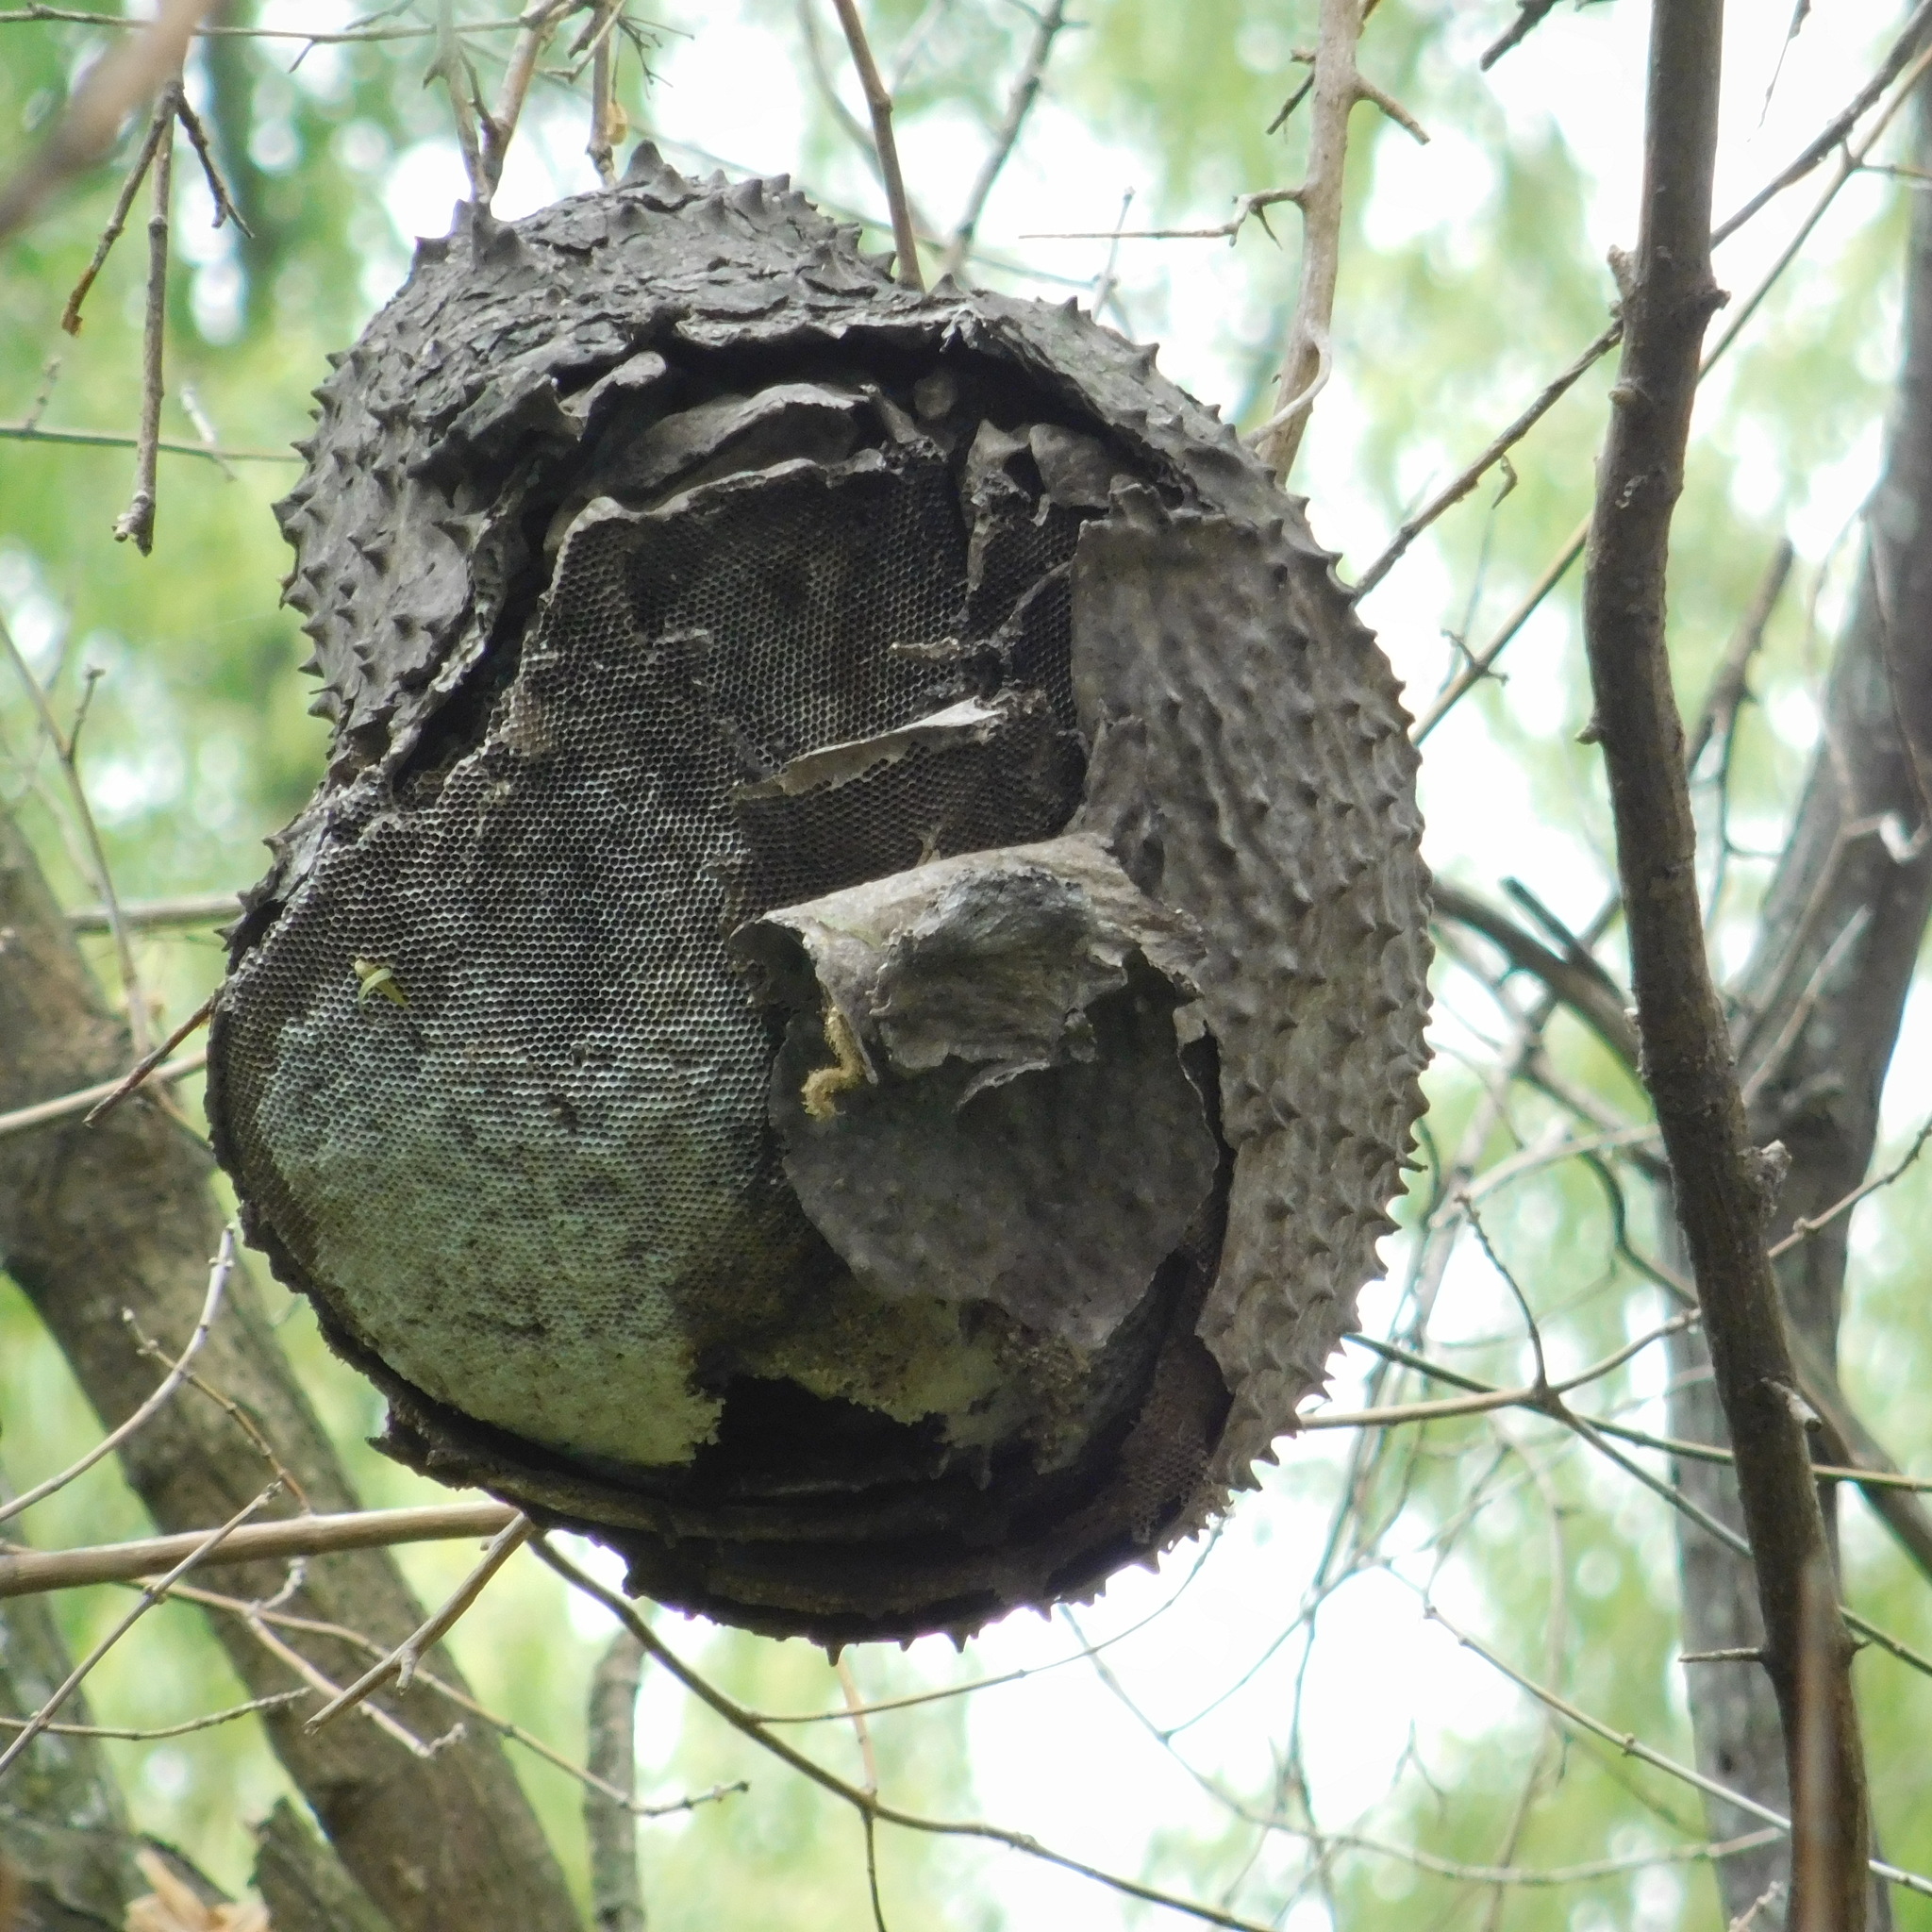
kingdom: Animalia
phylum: Arthropoda
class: Insecta
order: Hymenoptera
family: Eumenidae
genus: Polybia
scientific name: Polybia scutellaris
